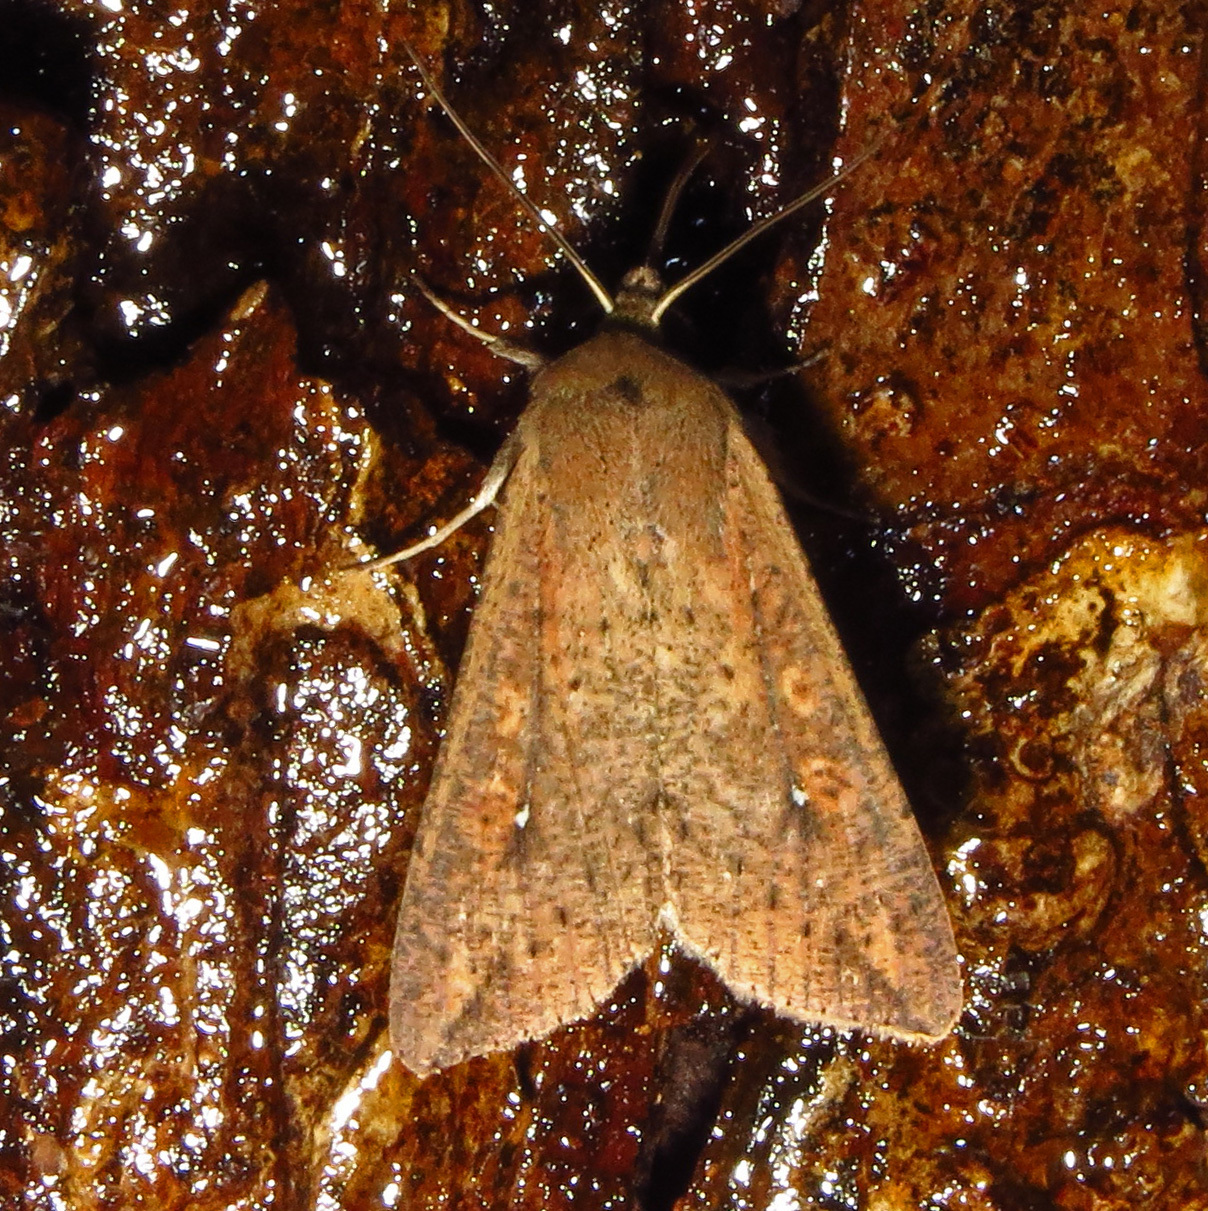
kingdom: Animalia
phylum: Arthropoda
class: Insecta
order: Lepidoptera
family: Noctuidae
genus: Mythimna
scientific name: Mythimna unipuncta
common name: White-speck
